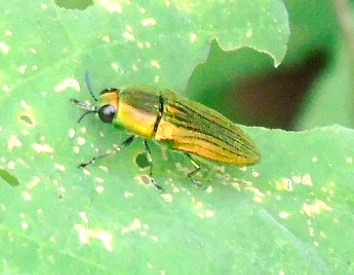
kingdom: Animalia
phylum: Arthropoda
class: Insecta
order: Coleoptera
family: Buprestidae
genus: Agaeocera
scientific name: Agaeocera scintillans
